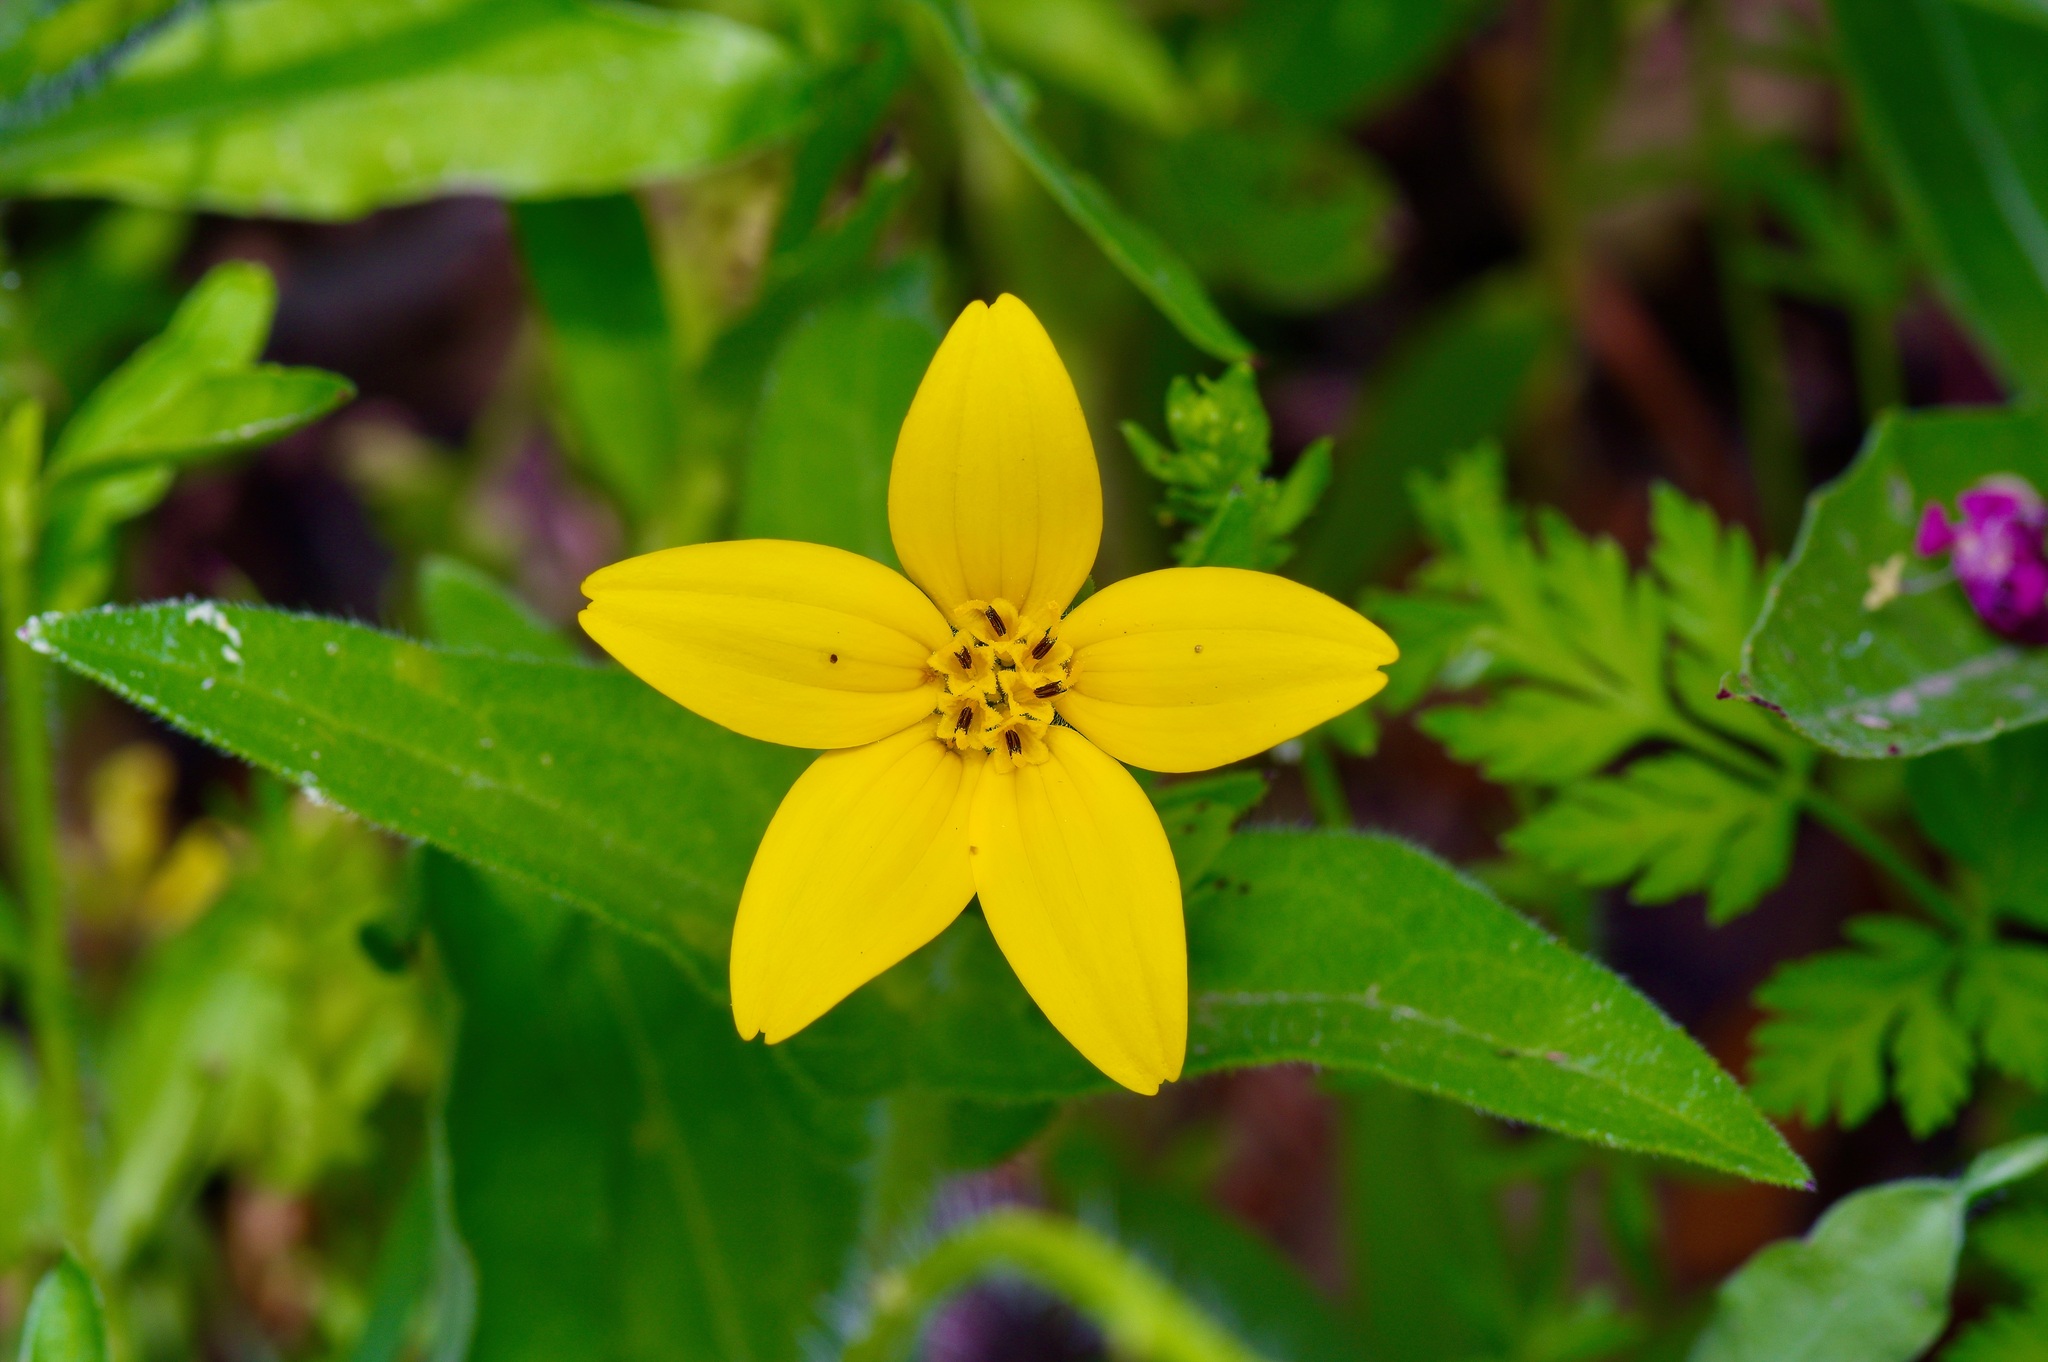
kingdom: Plantae
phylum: Tracheophyta
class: Magnoliopsida
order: Asterales
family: Asteraceae
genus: Lindheimera
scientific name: Lindheimera texana
